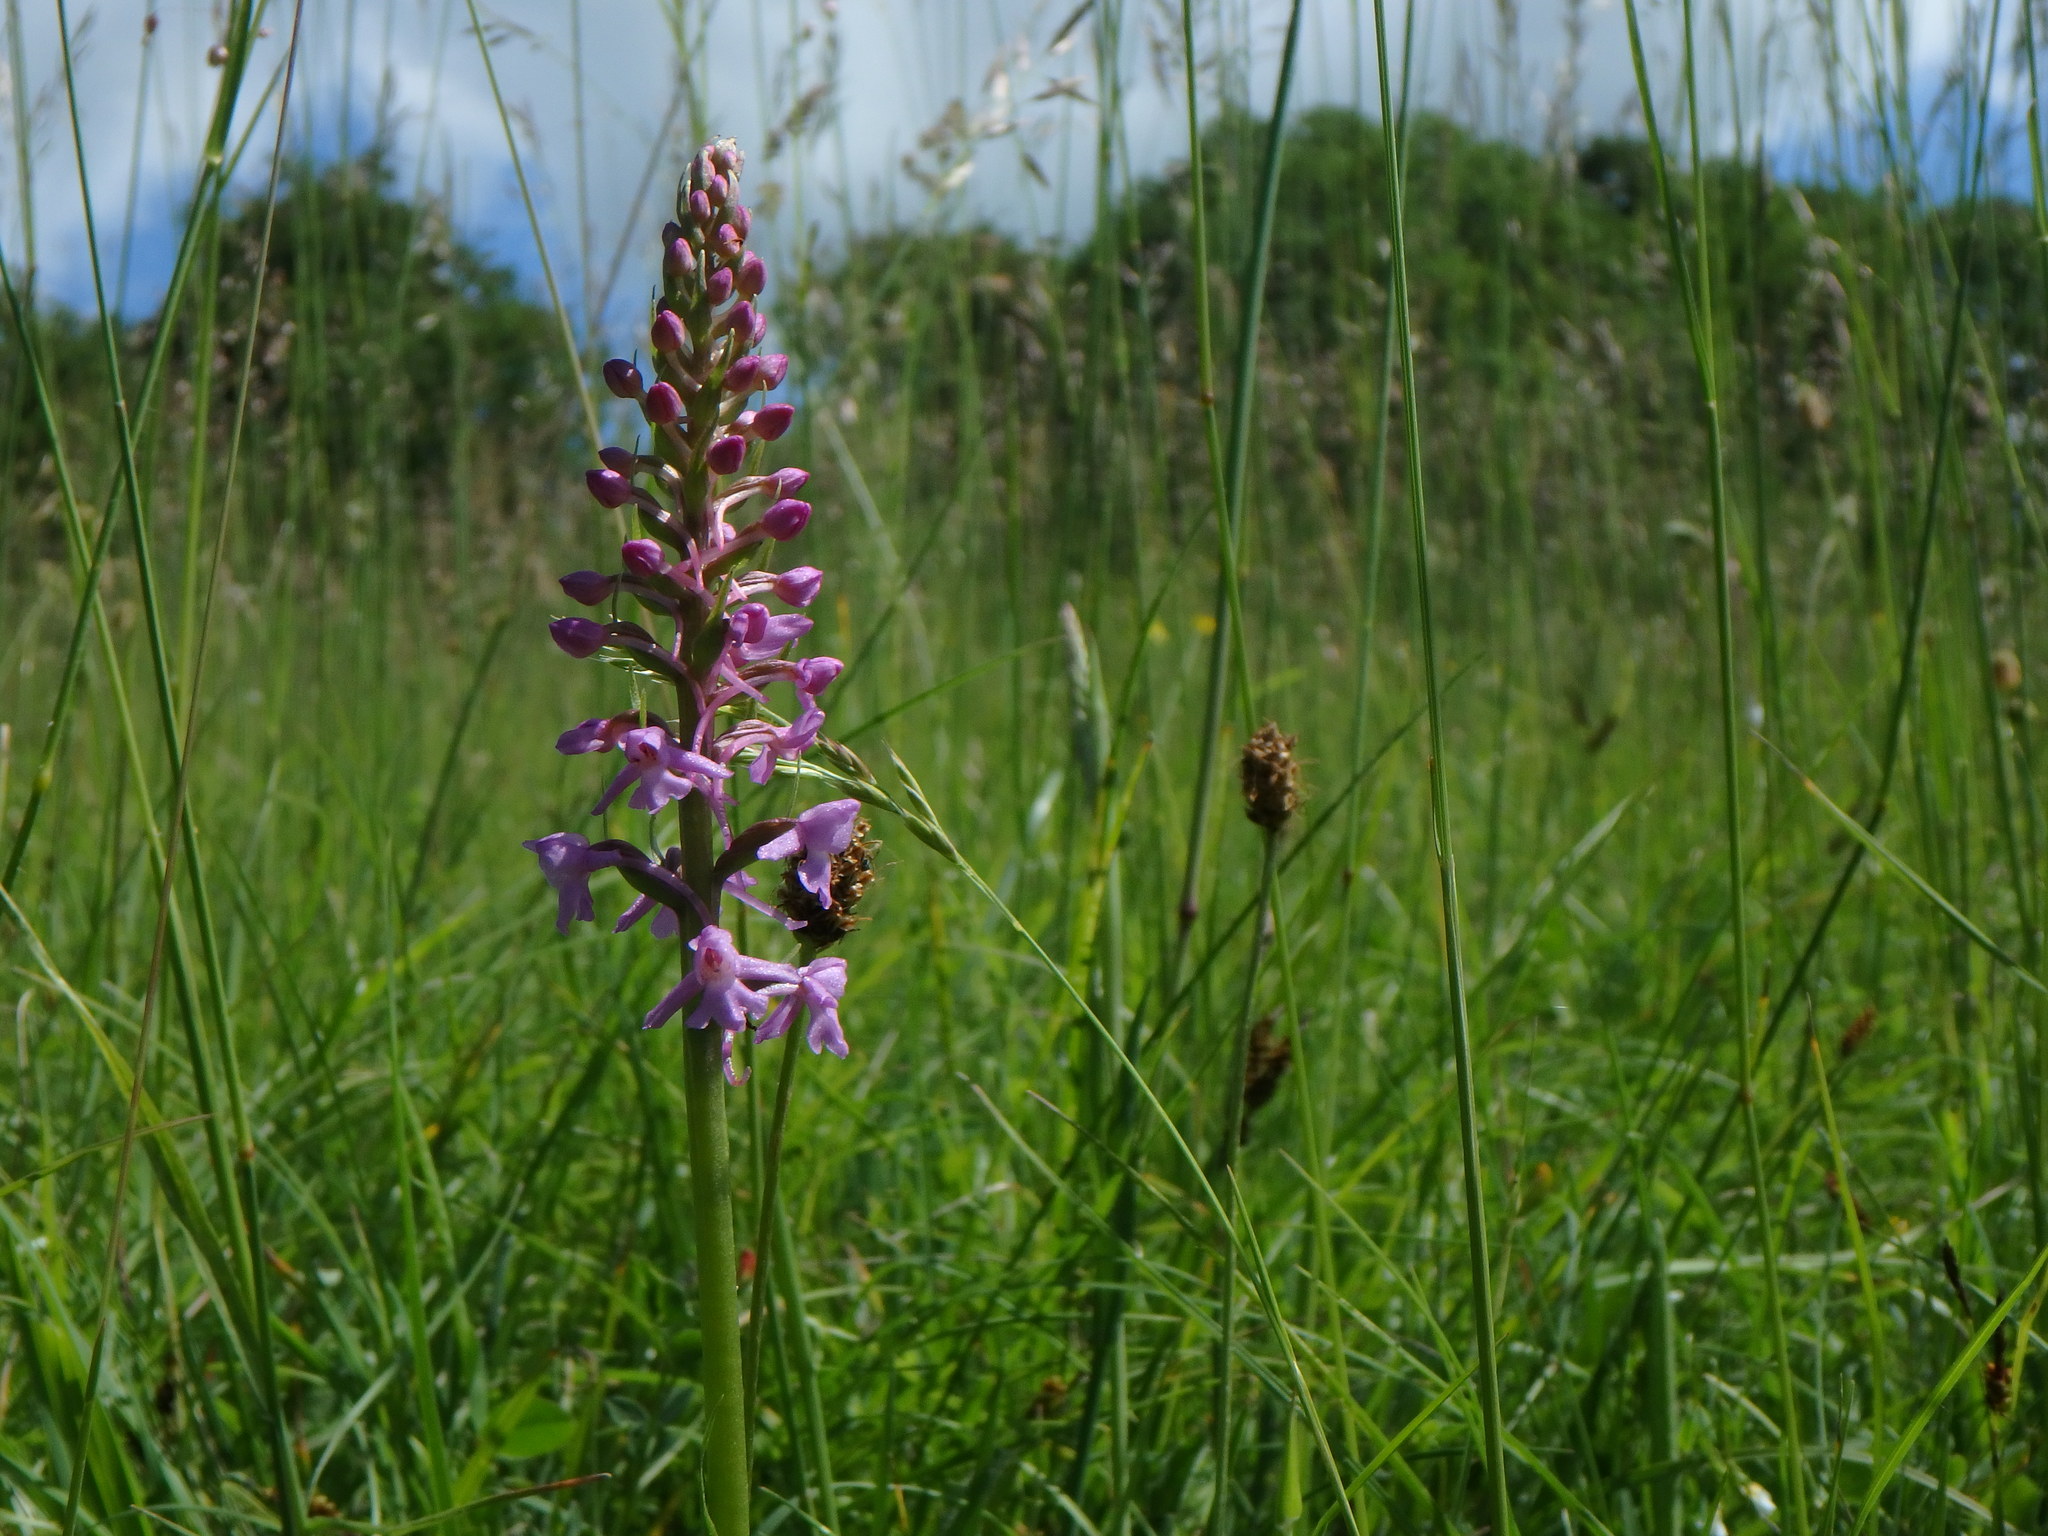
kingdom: Plantae
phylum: Tracheophyta
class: Liliopsida
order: Asparagales
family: Orchidaceae
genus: Gymnadenia
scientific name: Gymnadenia conopsea
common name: Fragrant orchid
